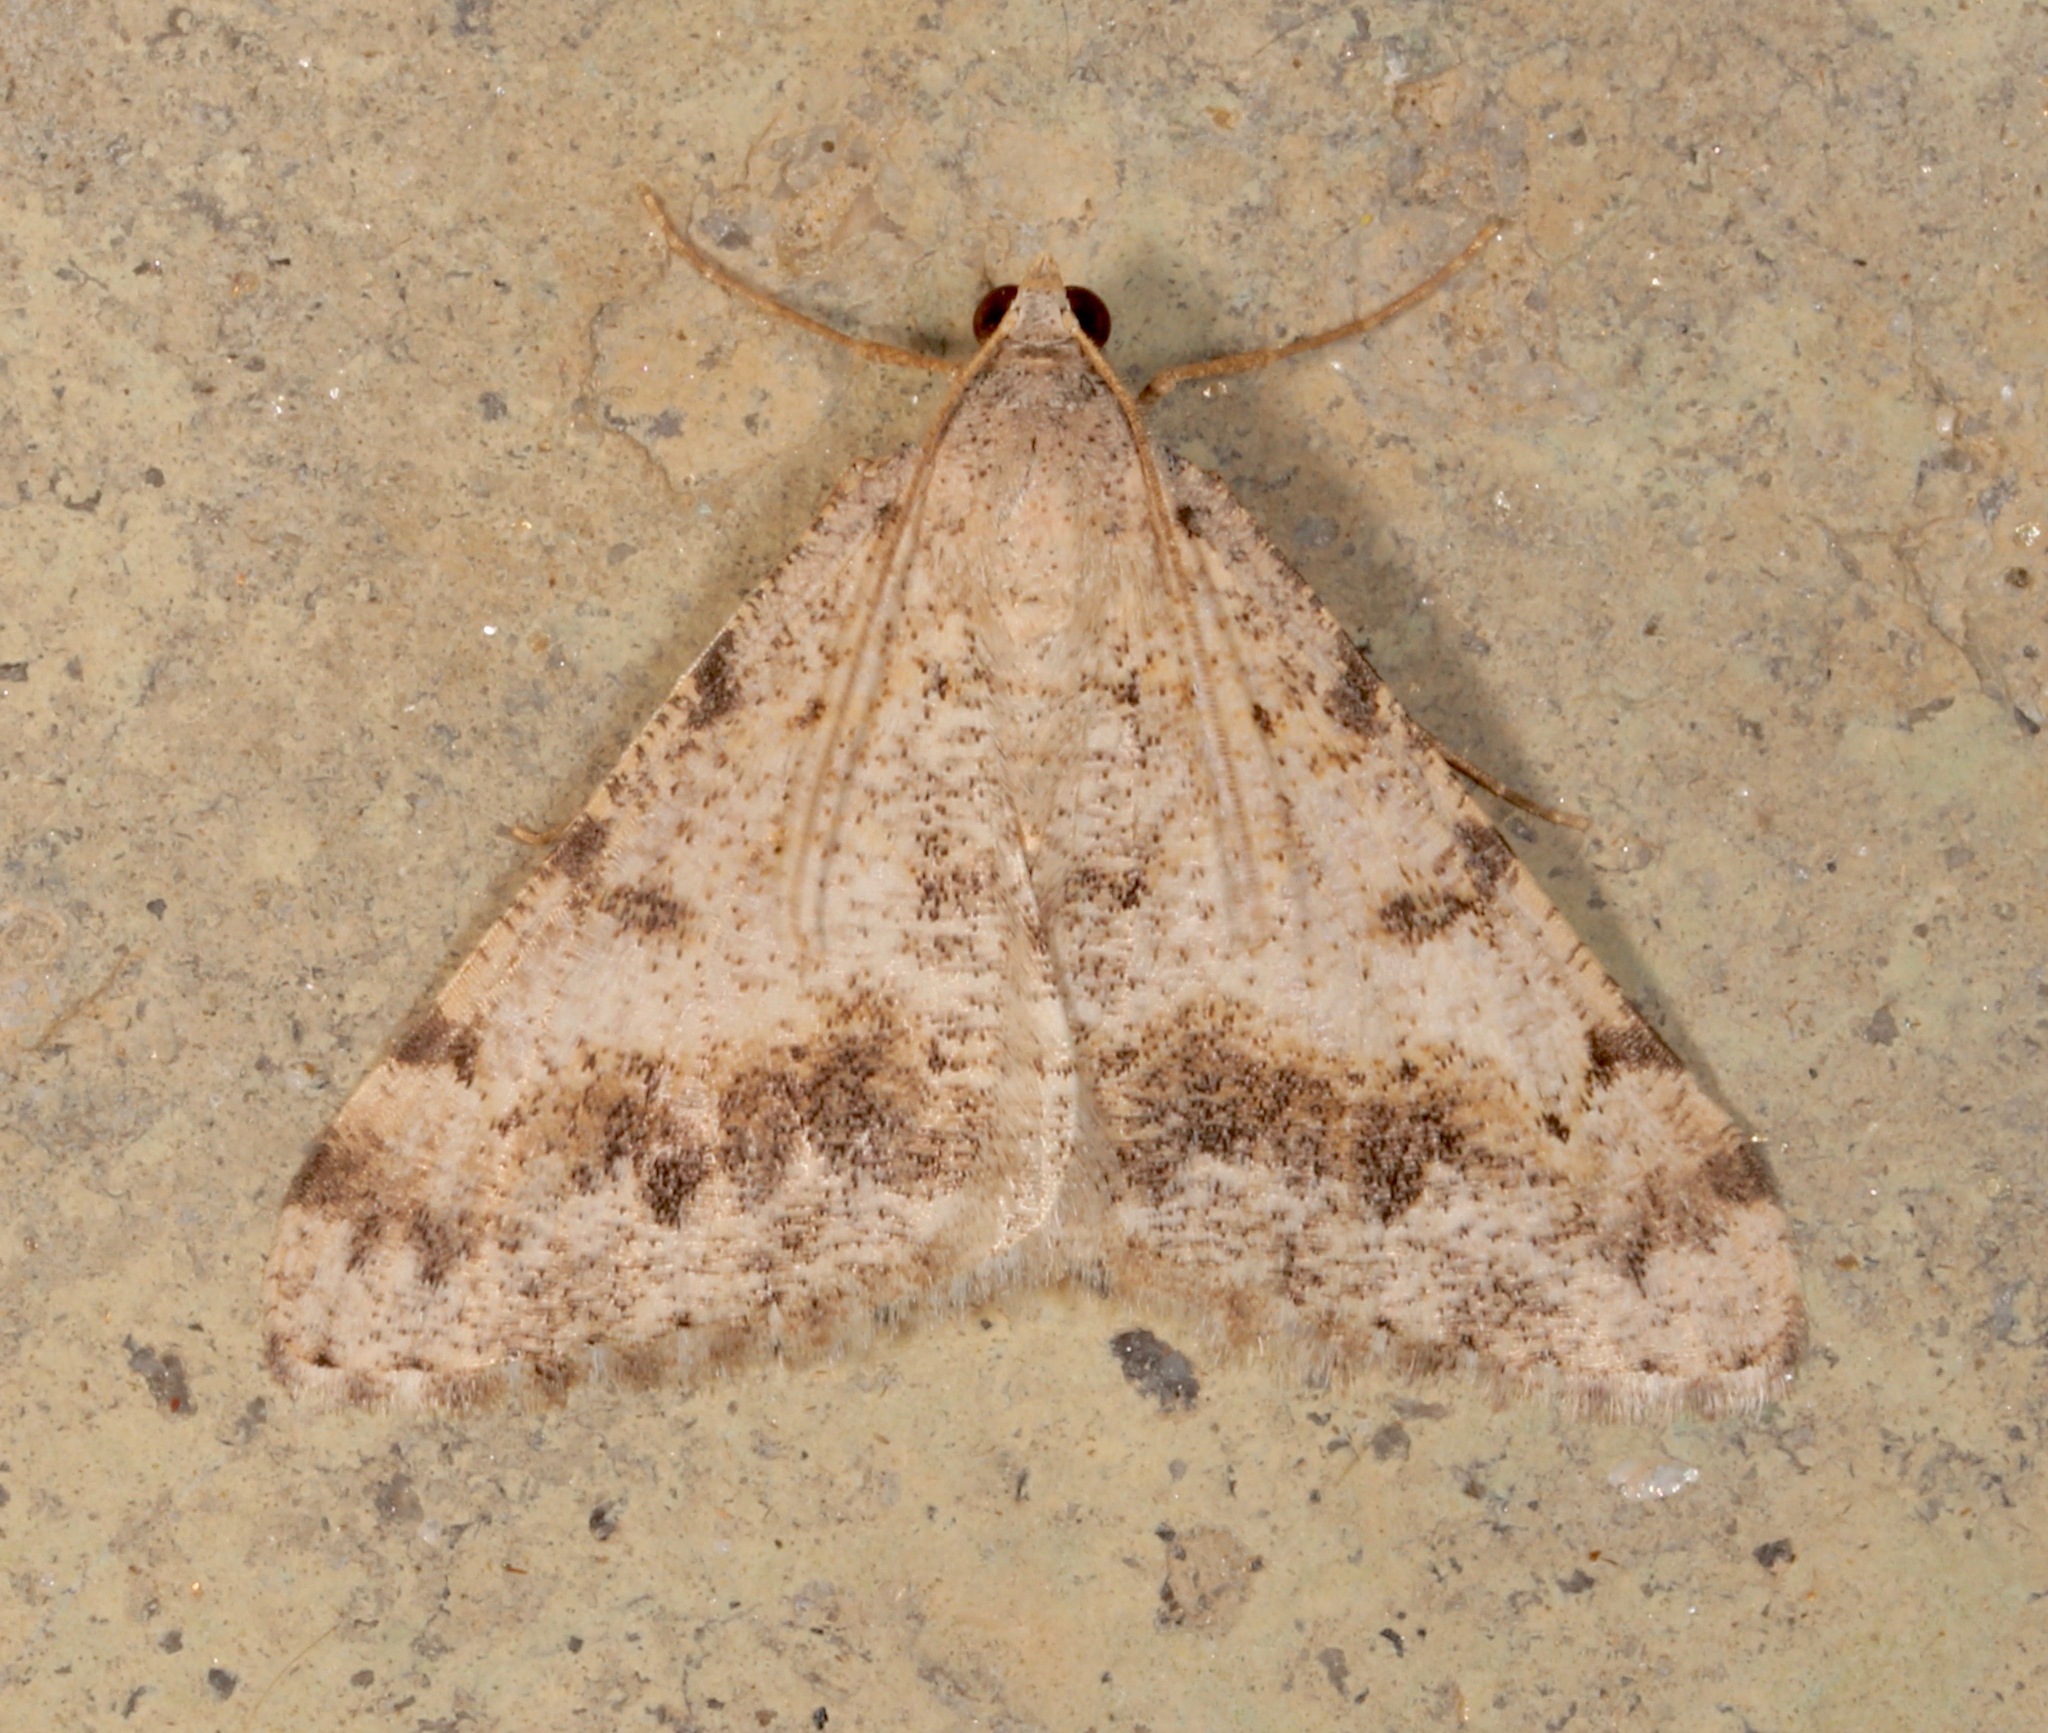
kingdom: Animalia
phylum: Arthropoda
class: Insecta
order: Lepidoptera
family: Geometridae
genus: Digrammia
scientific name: Digrammia colorata
